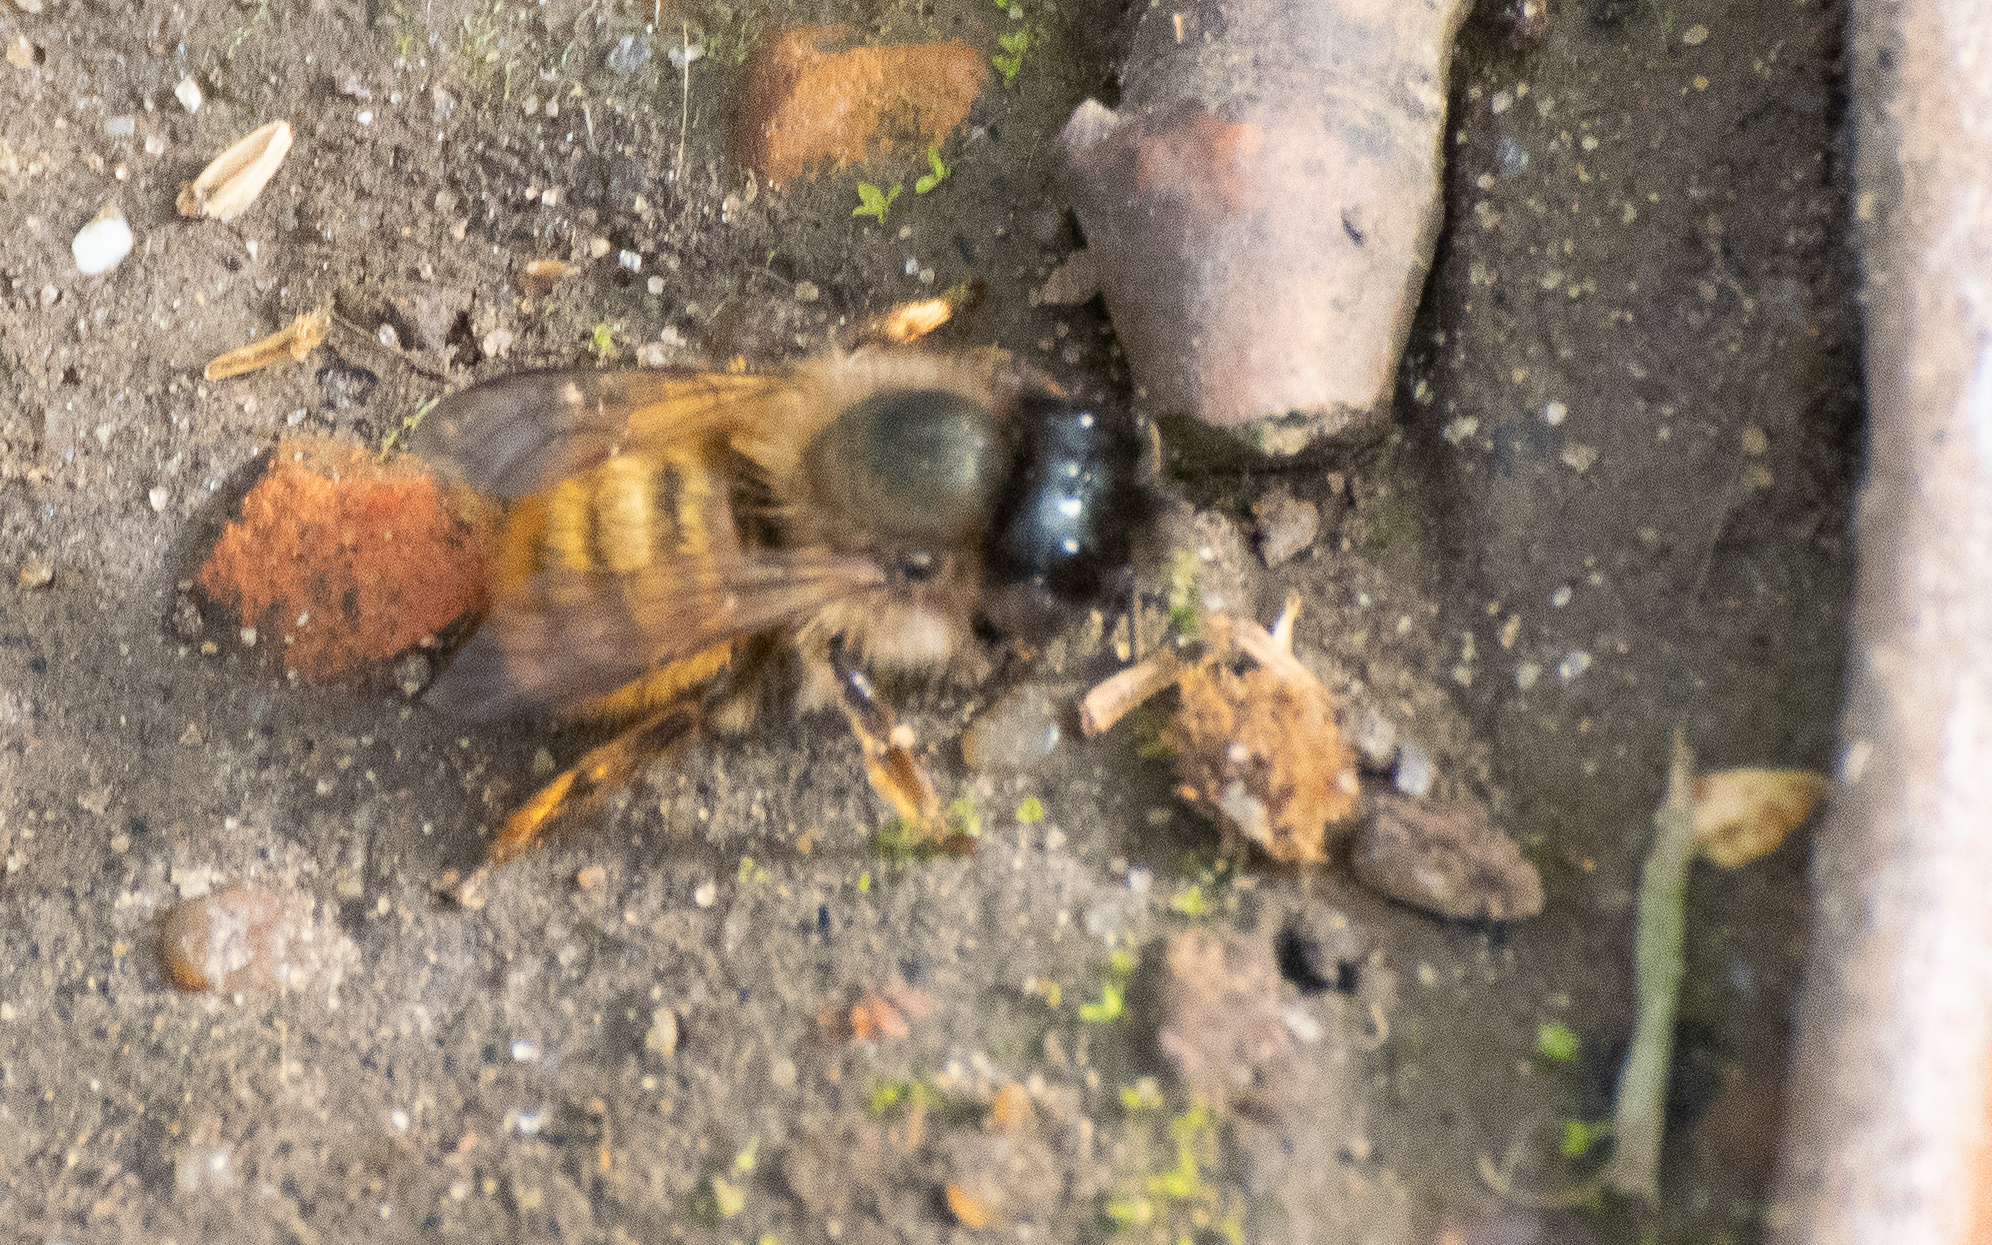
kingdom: Animalia
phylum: Arthropoda
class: Insecta
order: Hymenoptera
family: Megachilidae
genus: Osmia
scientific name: Osmia bicornis
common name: Red mason bee
